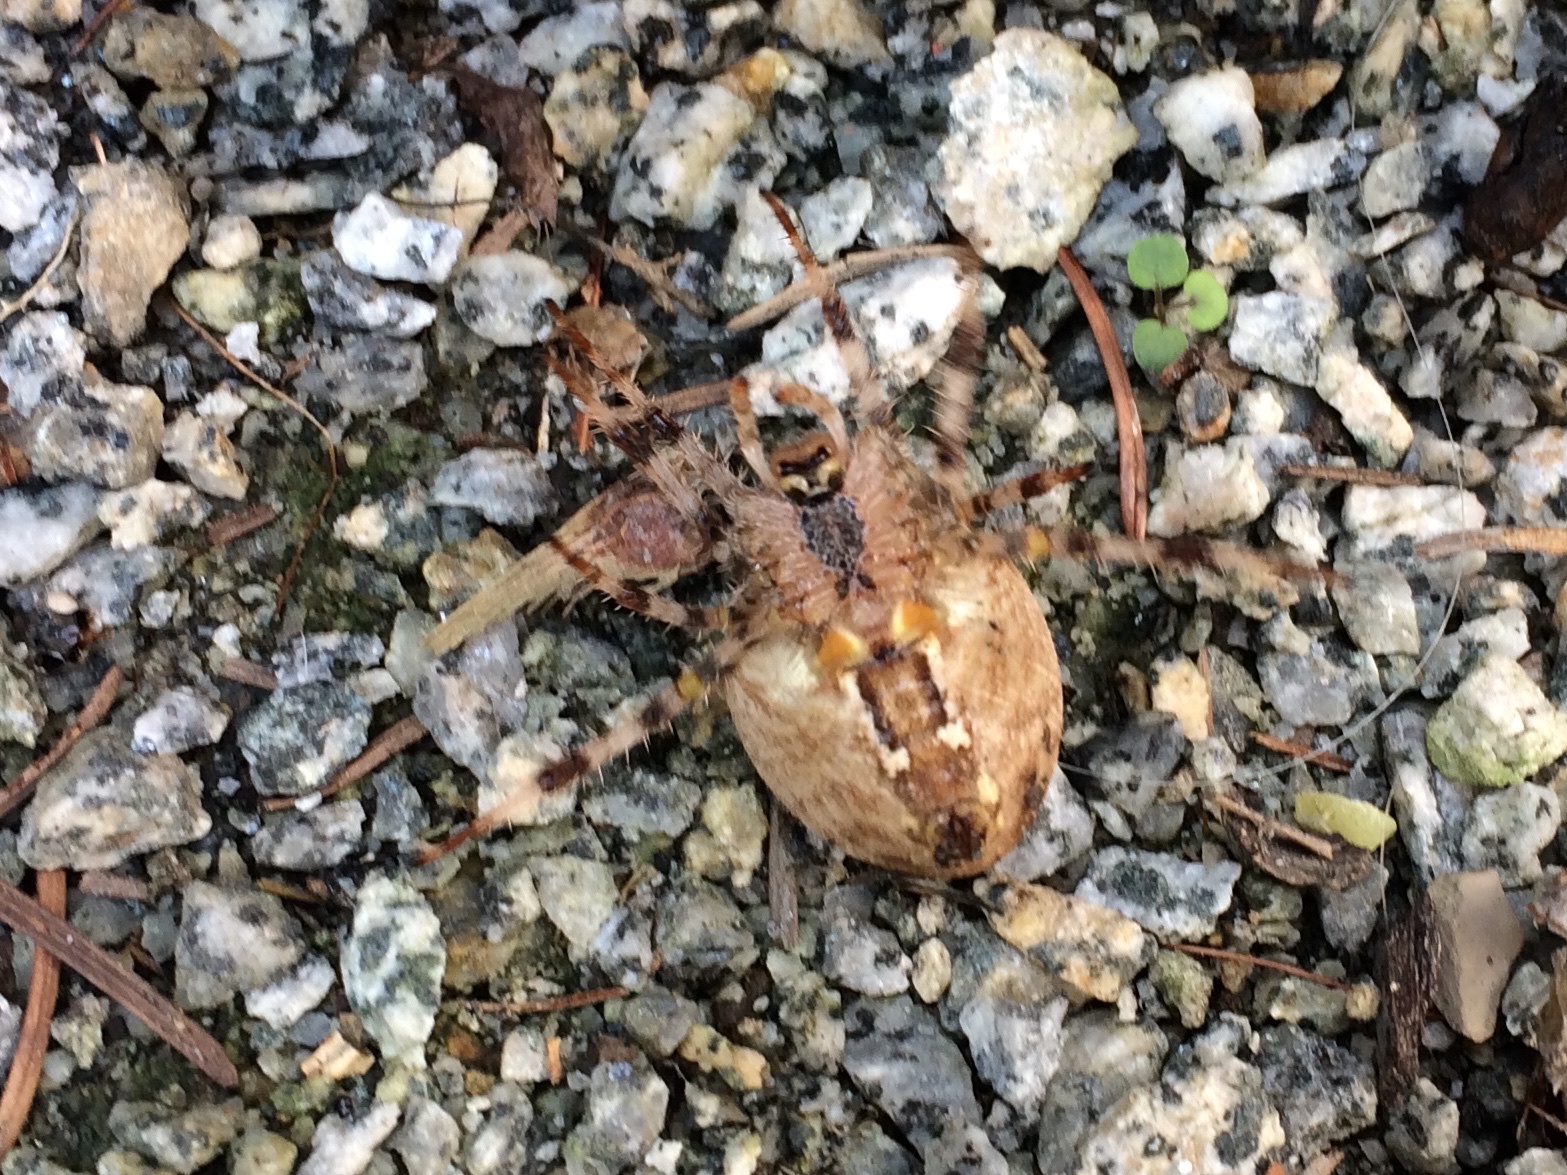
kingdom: Animalia
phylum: Arthropoda
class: Arachnida
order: Araneae
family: Araneidae
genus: Araneus
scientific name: Araneus diadematus
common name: Cross orbweaver
